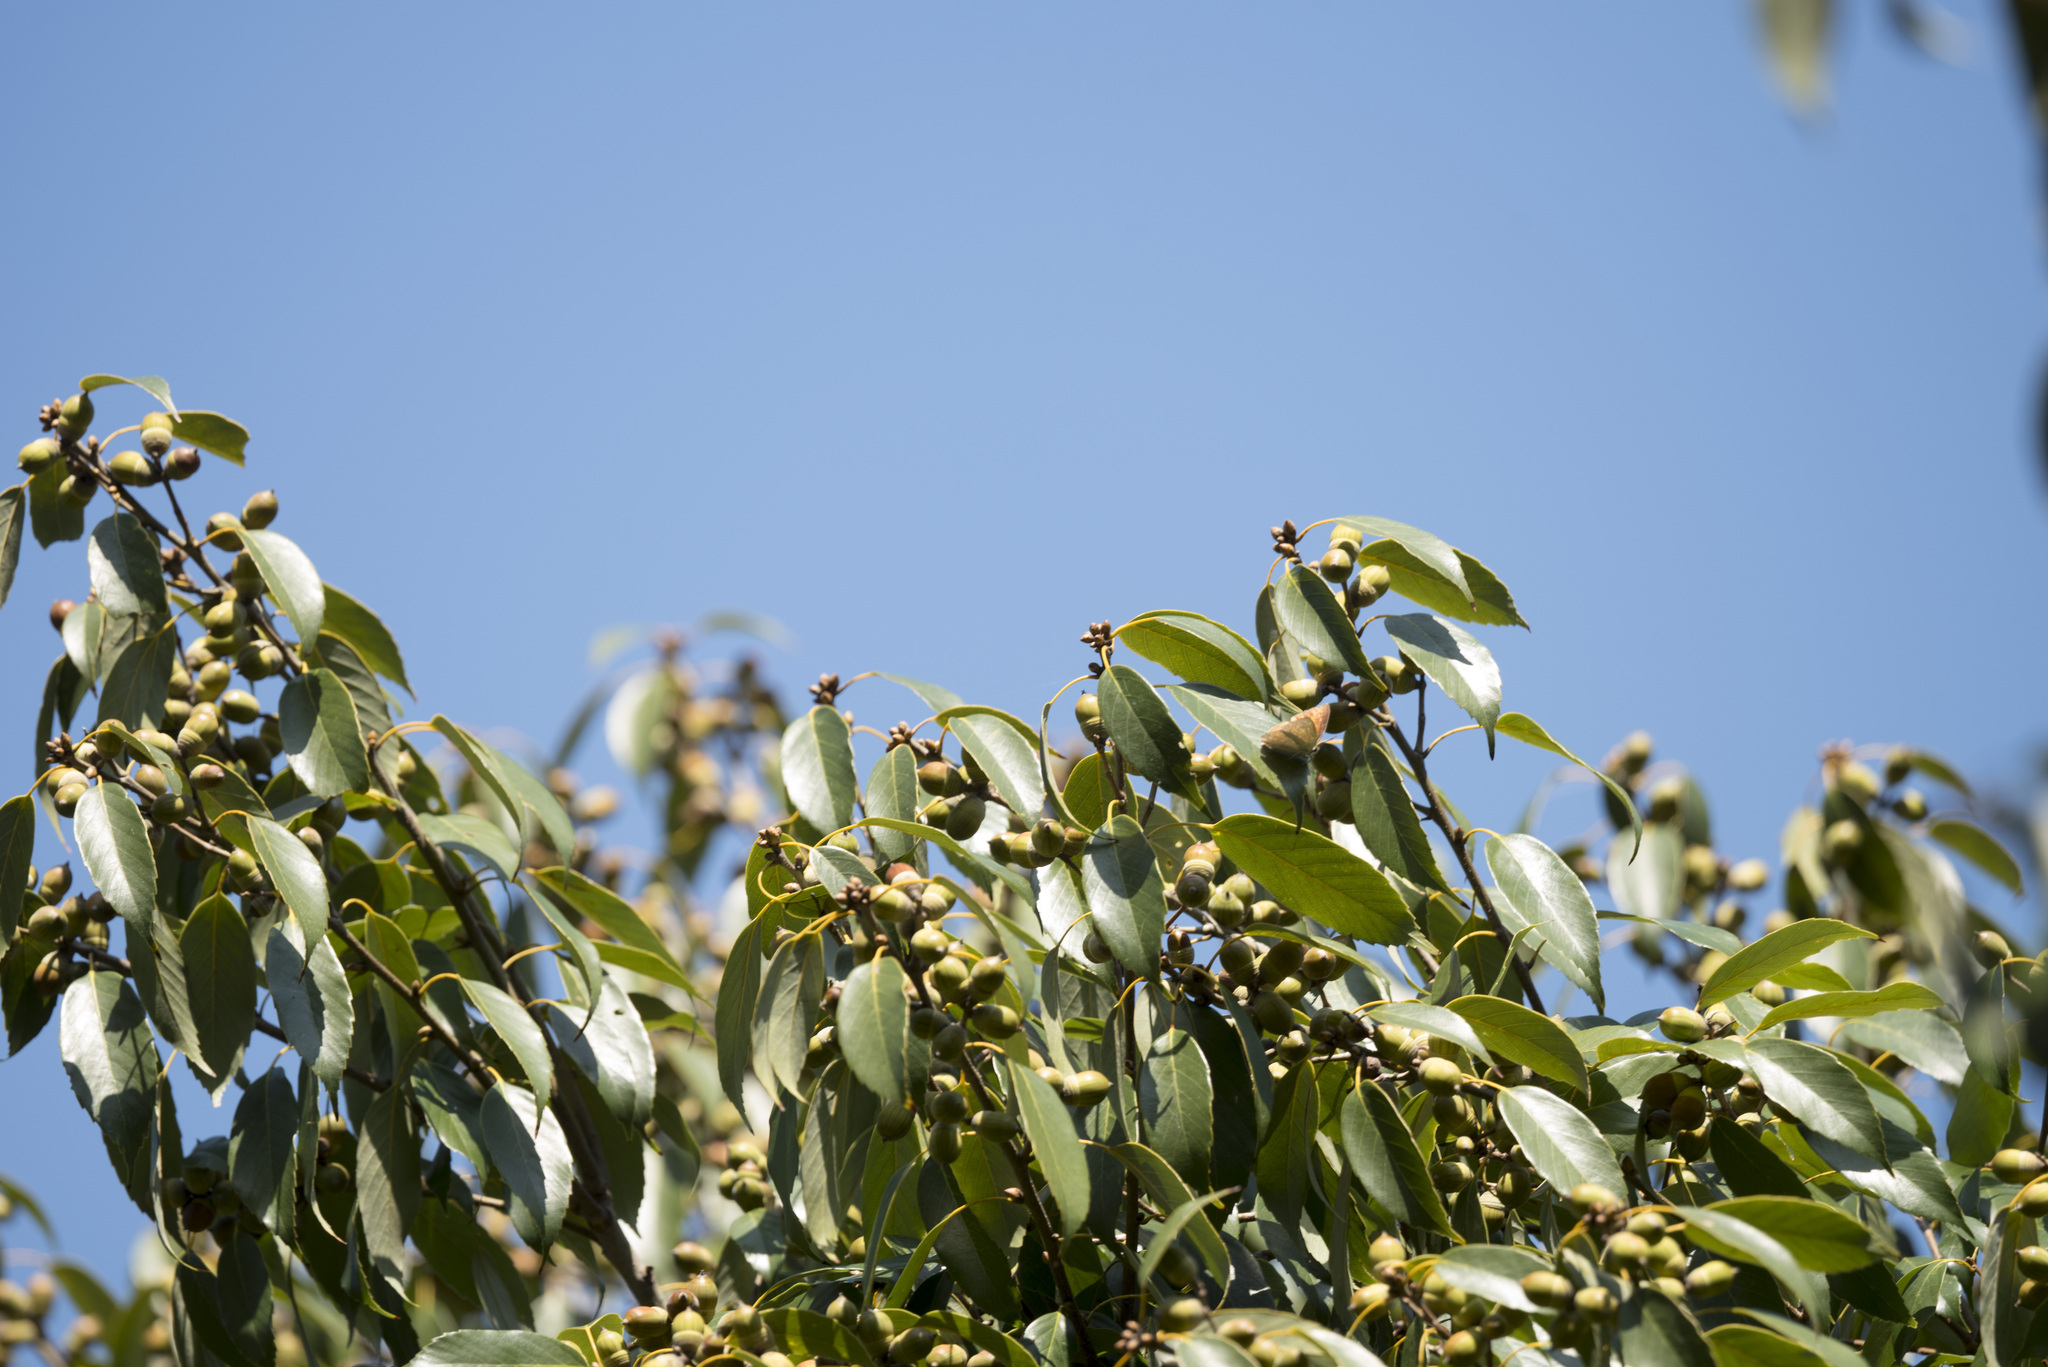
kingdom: Plantae
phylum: Tracheophyta
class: Magnoliopsida
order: Fagales
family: Fagaceae
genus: Quercus
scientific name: Quercus glauca
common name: Ring-cup oak
